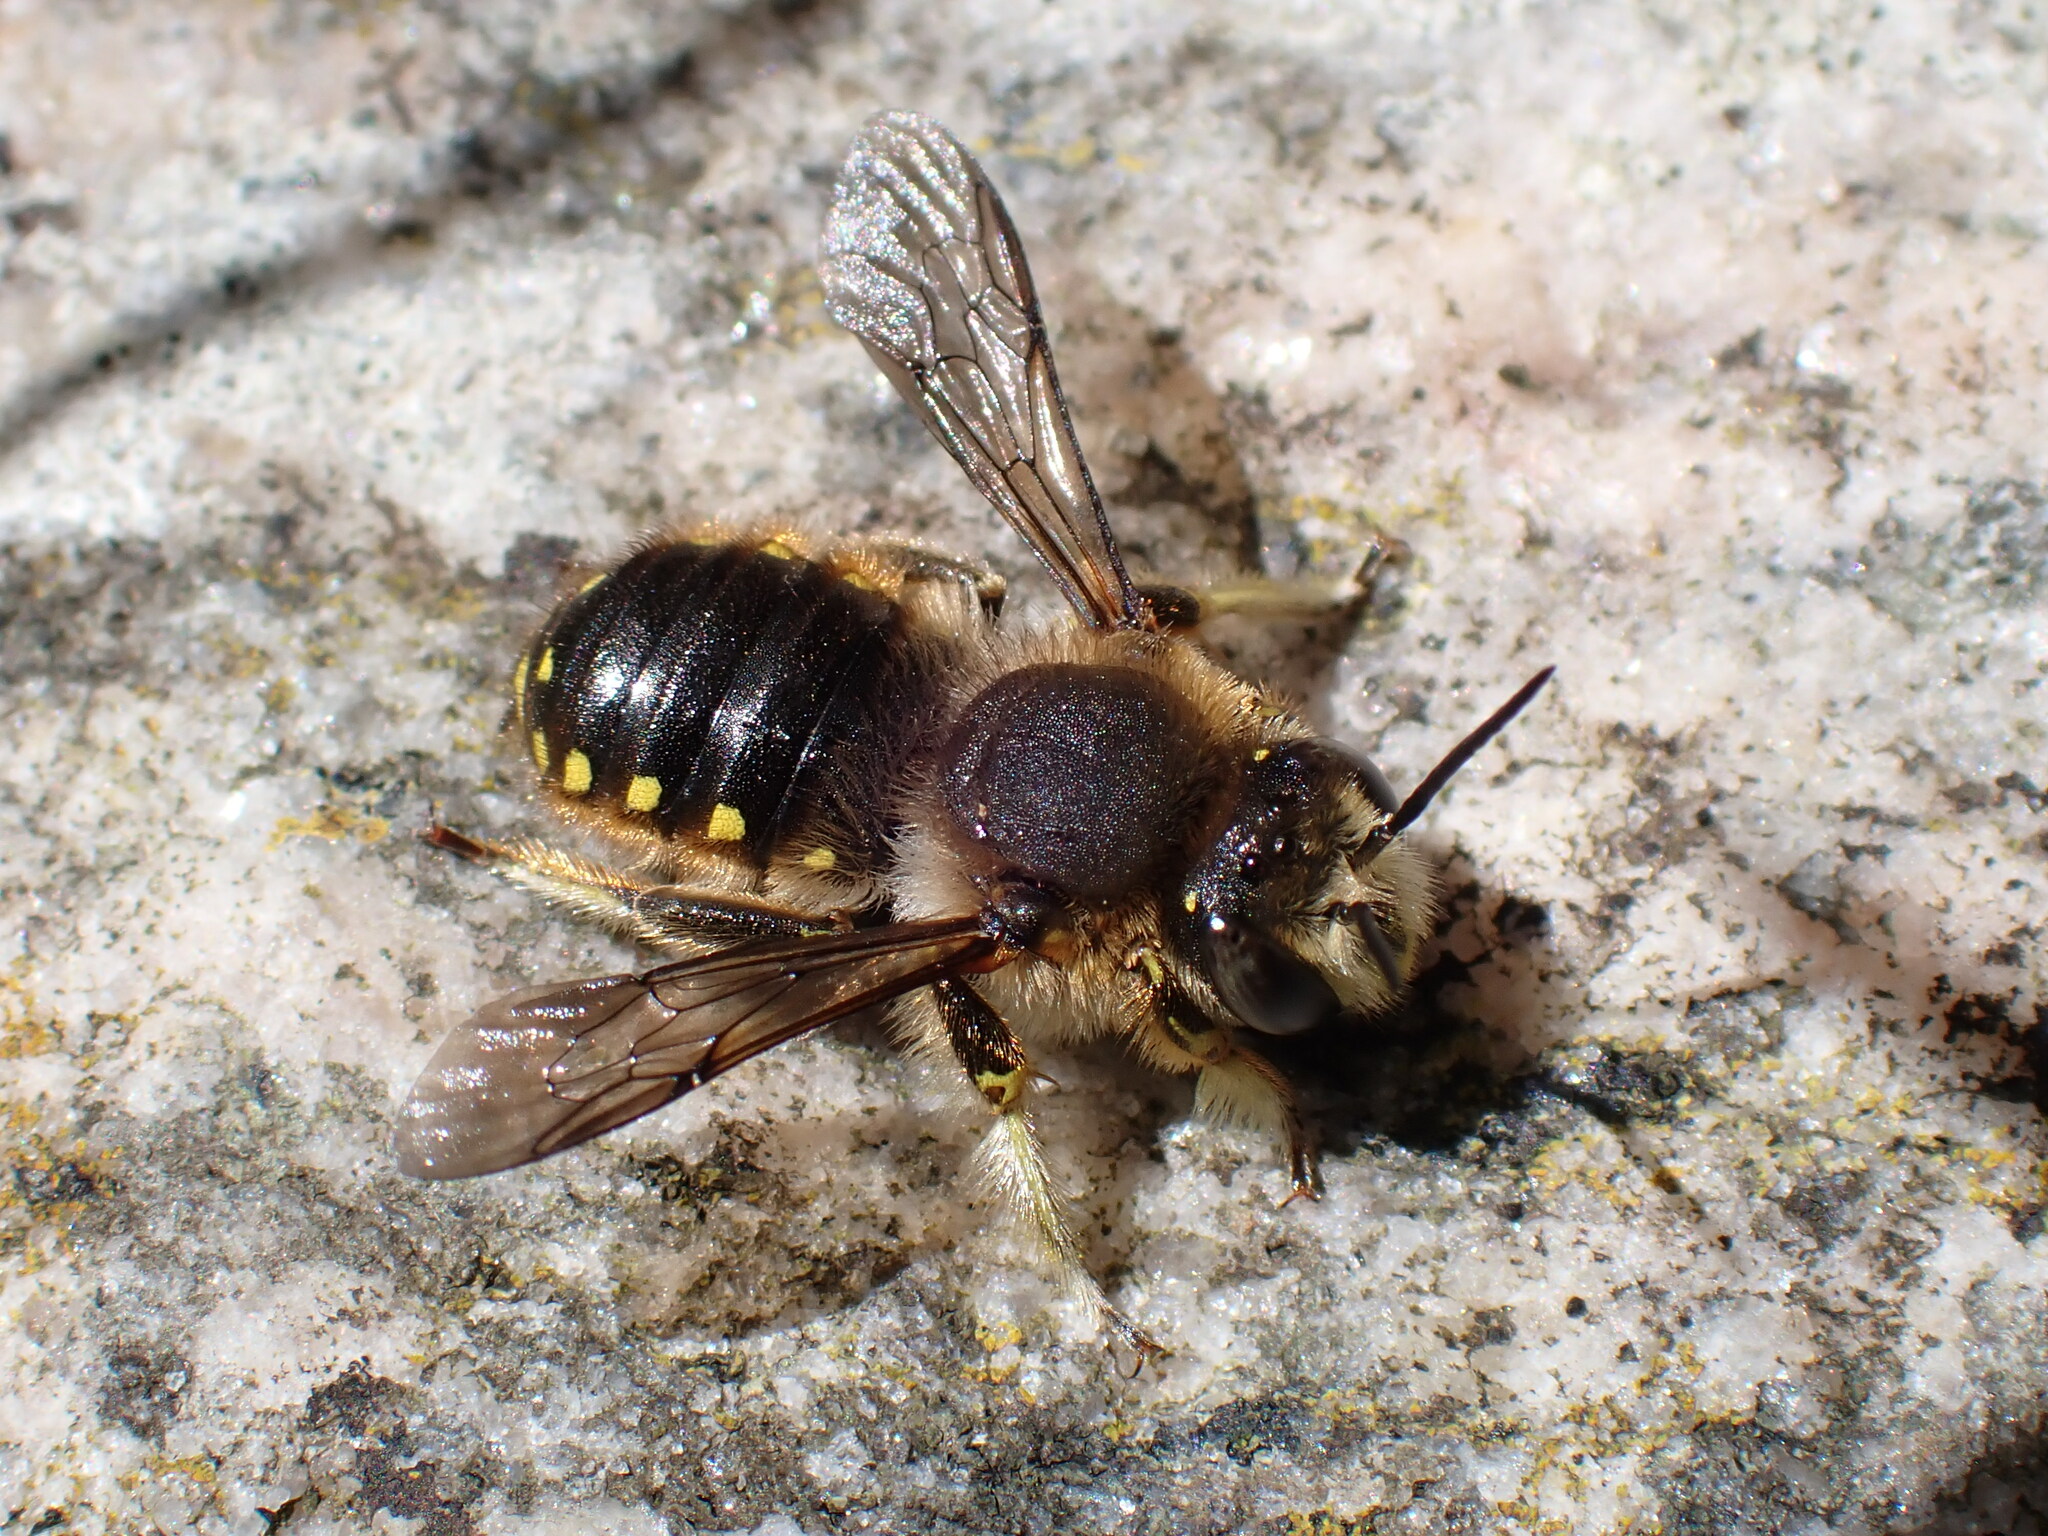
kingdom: Animalia
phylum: Arthropoda
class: Insecta
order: Hymenoptera
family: Megachilidae
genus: Anthidium
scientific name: Anthidium manicatum
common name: Wool carder bee
